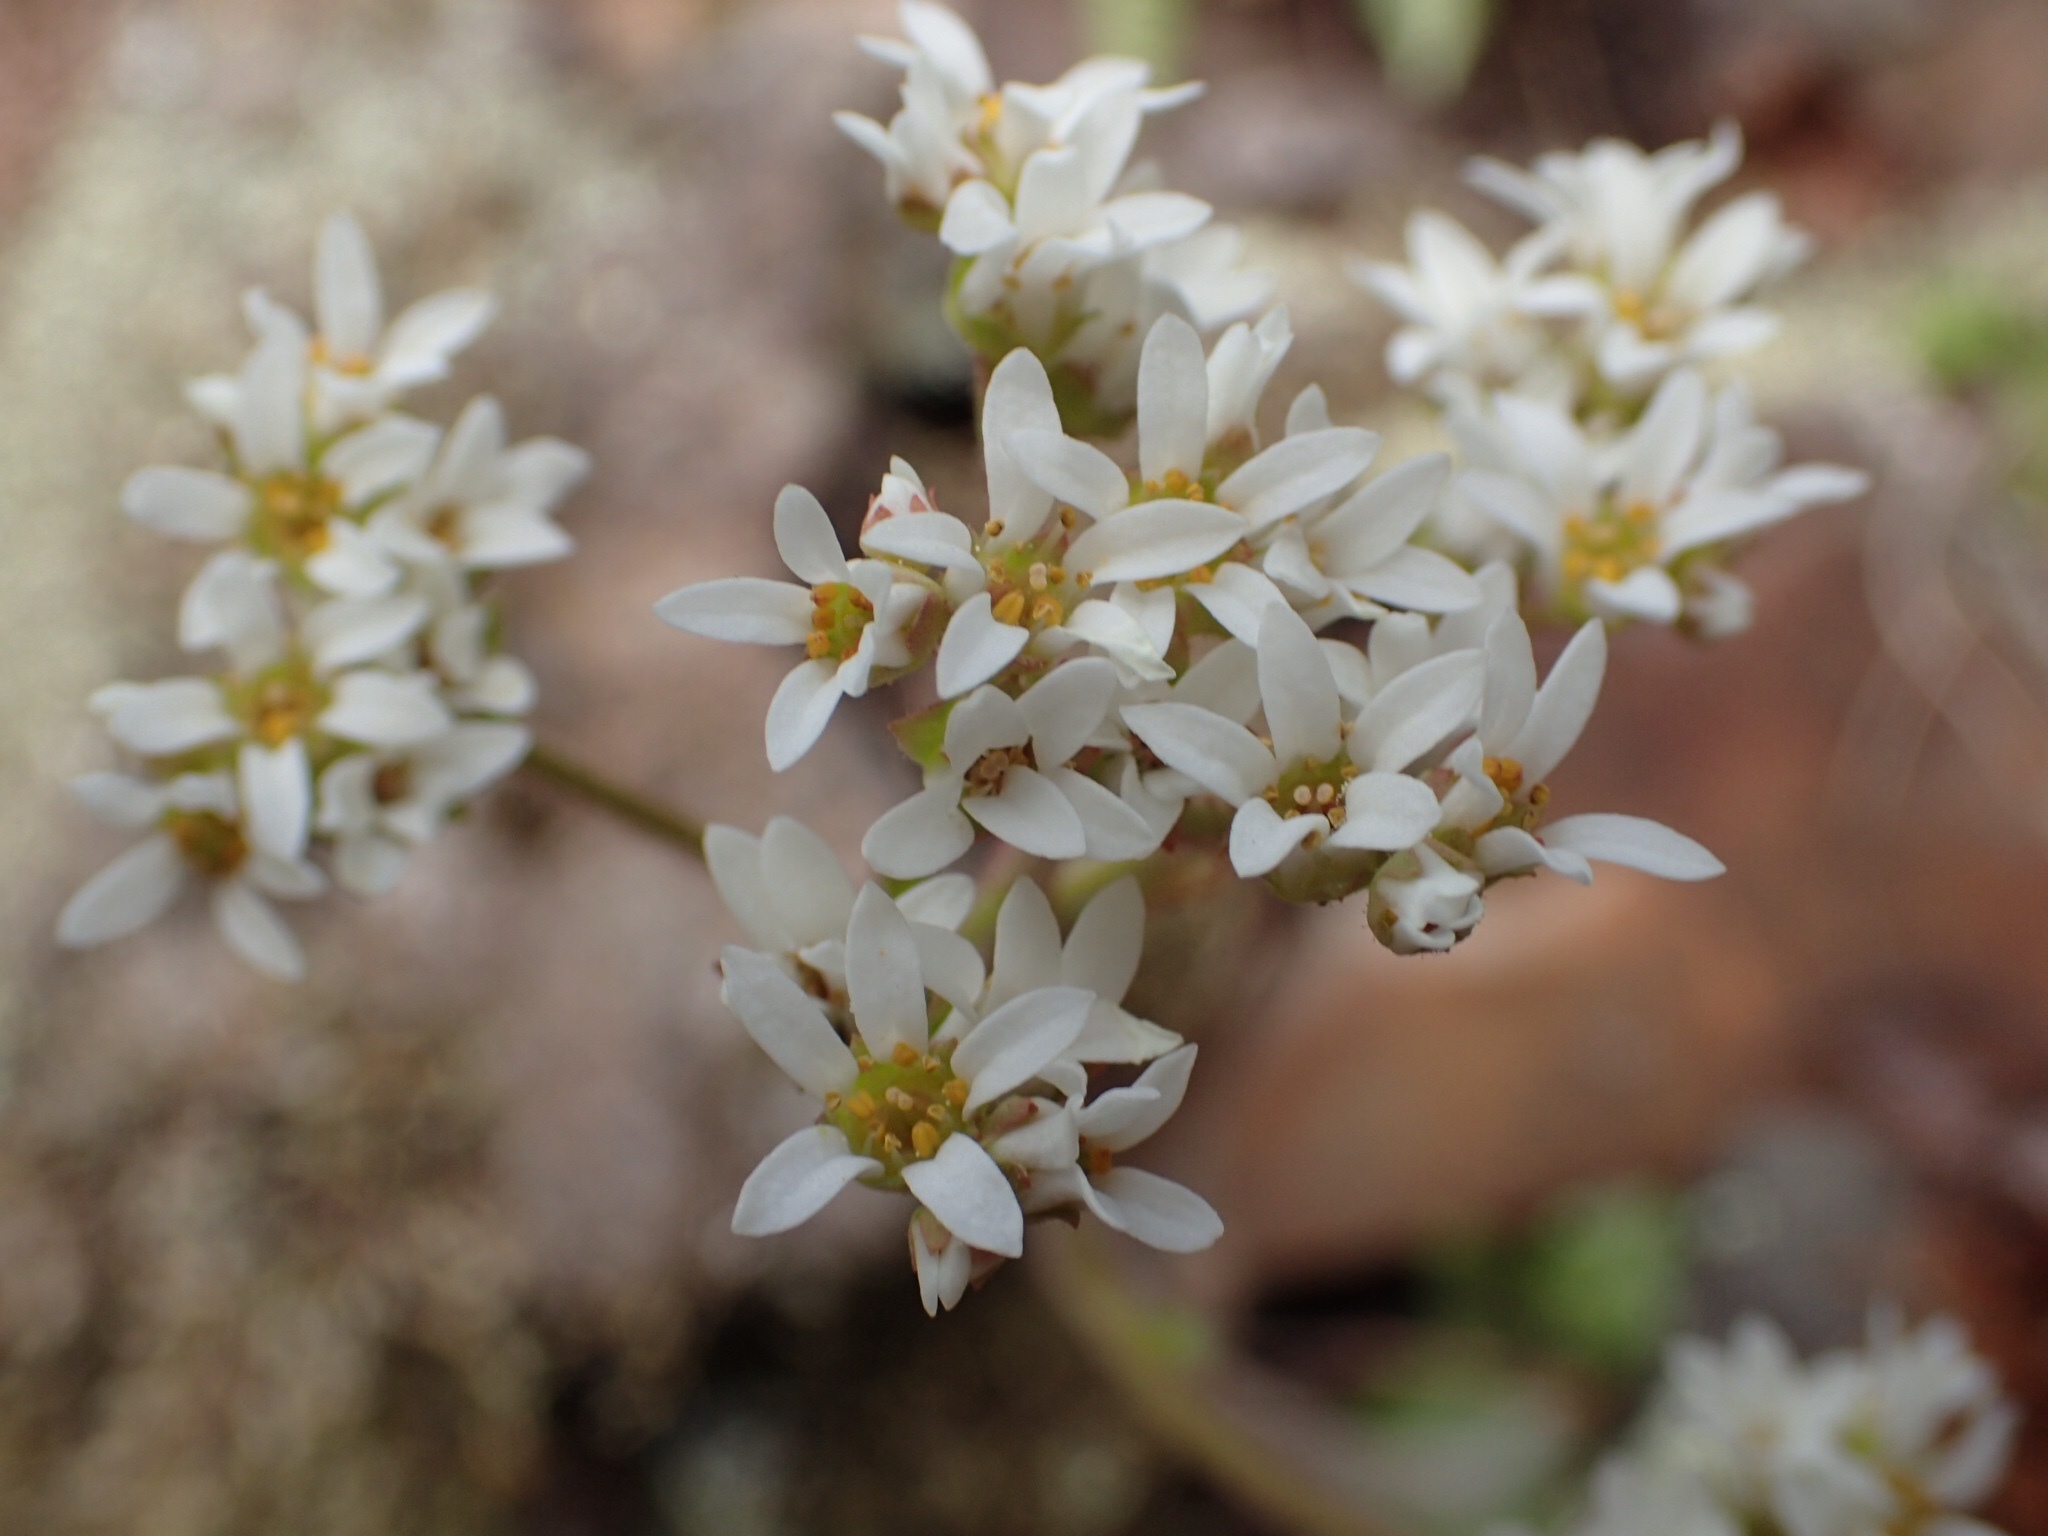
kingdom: Plantae
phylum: Tracheophyta
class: Magnoliopsida
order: Saxifragales
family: Saxifragaceae
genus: Micranthes
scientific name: Micranthes virginiensis
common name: Early saxifrage
